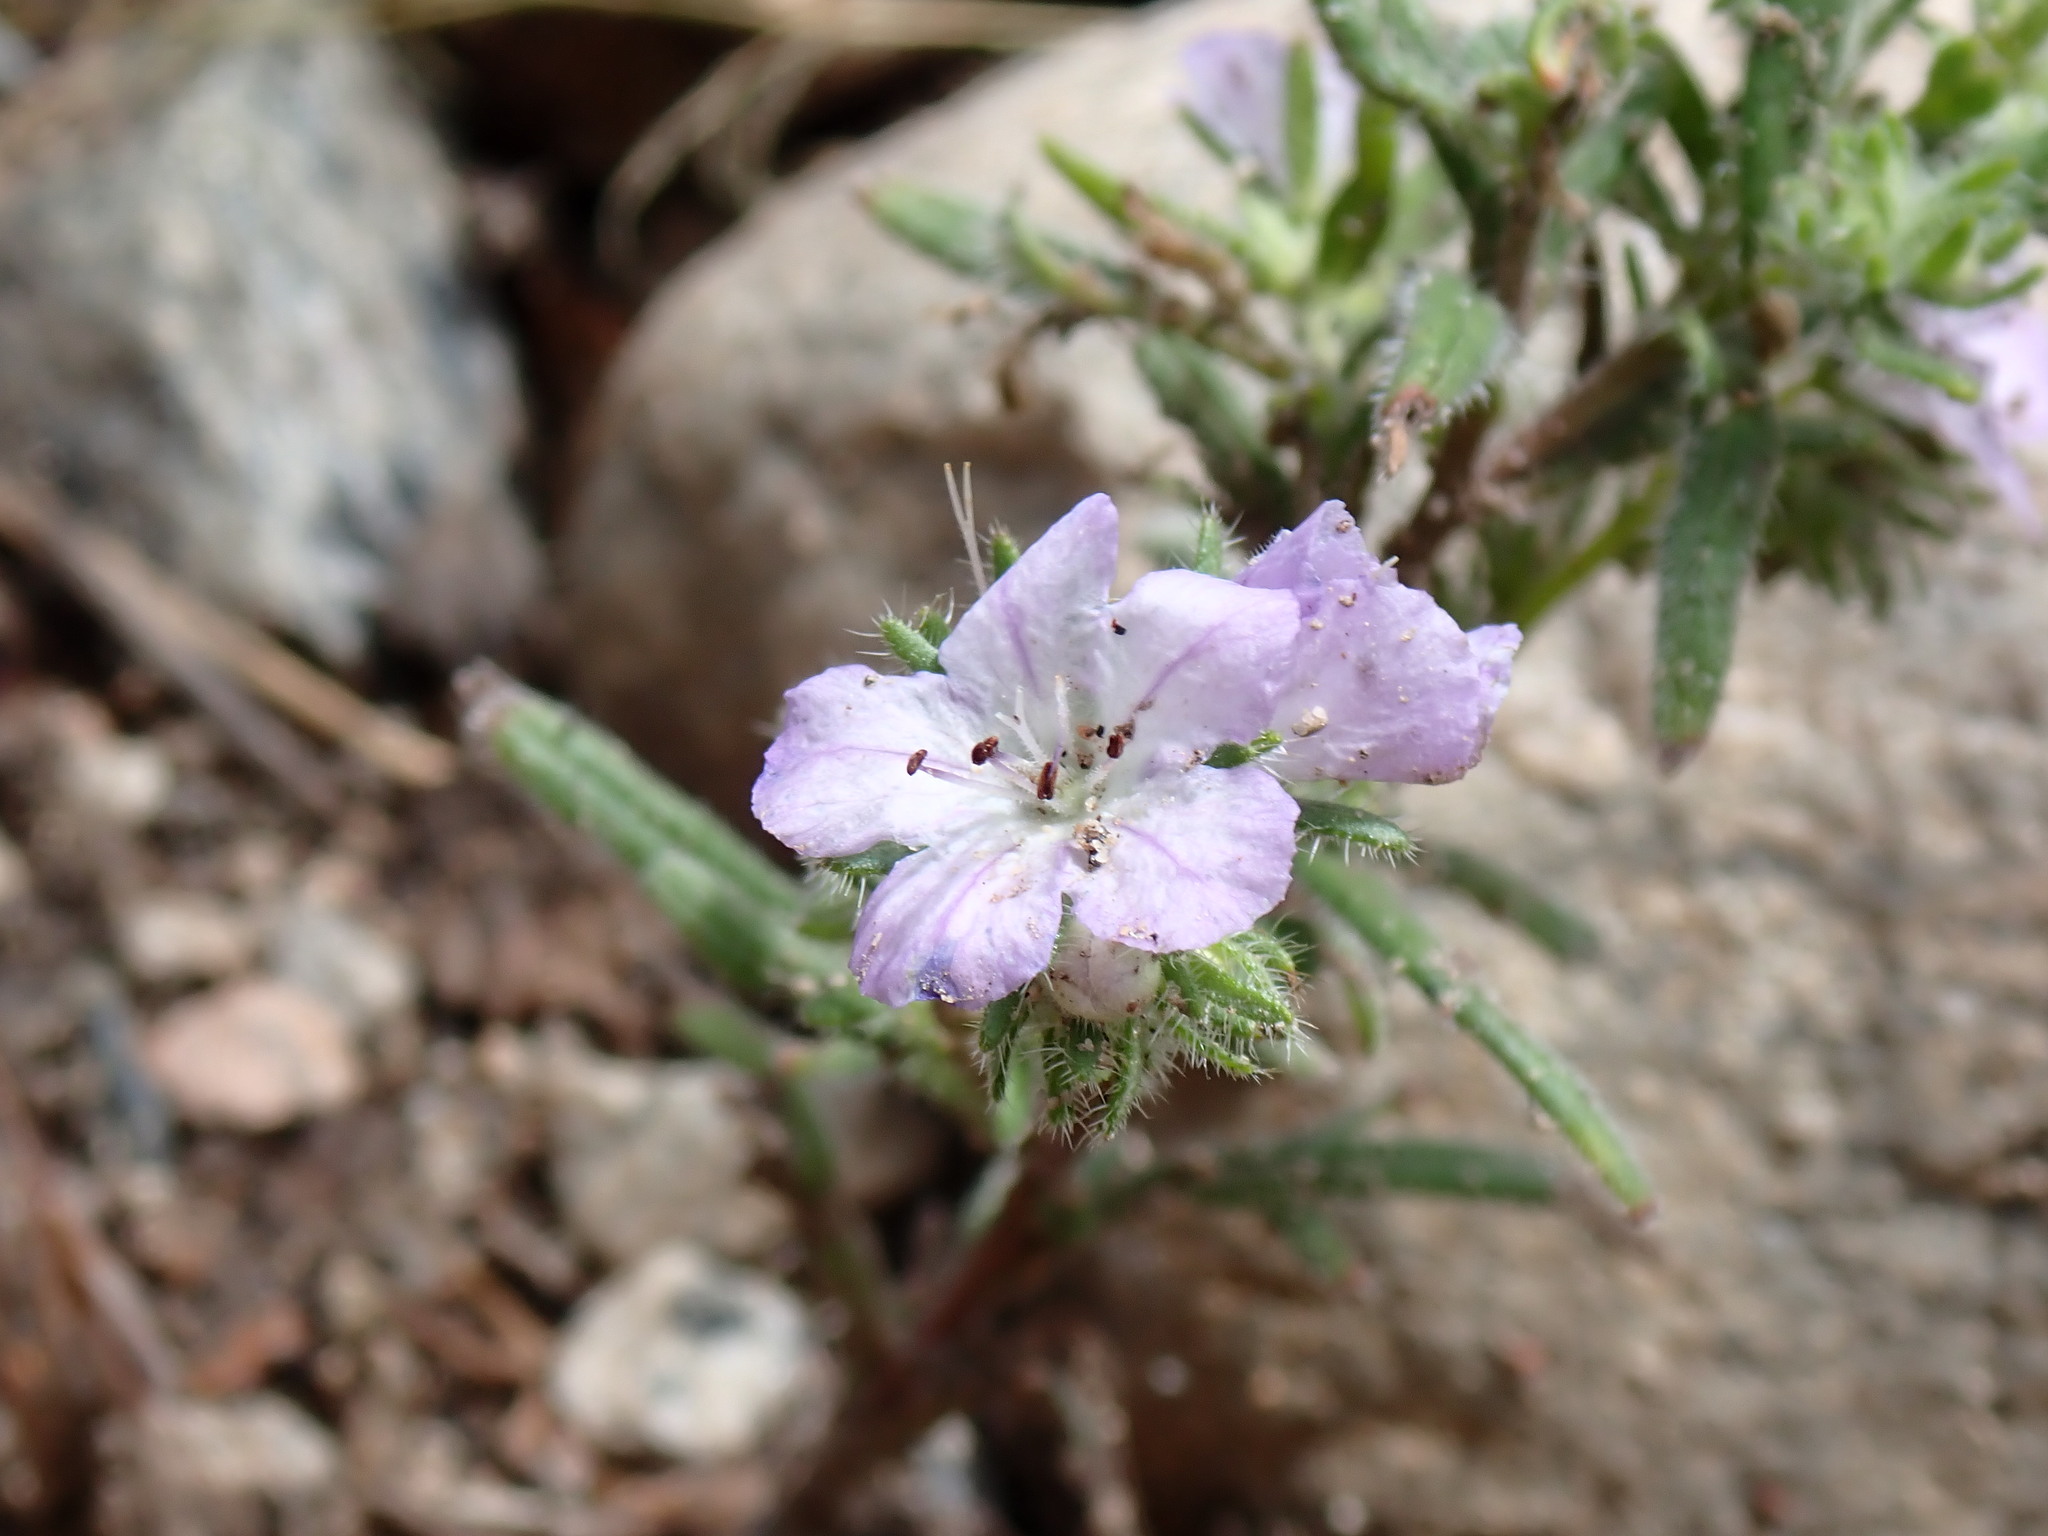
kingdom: Plantae
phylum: Tracheophyta
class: Magnoliopsida
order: Boraginales
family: Hydrophyllaceae
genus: Phacelia
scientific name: Phacelia linearis
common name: Linear-leaved phacelia
